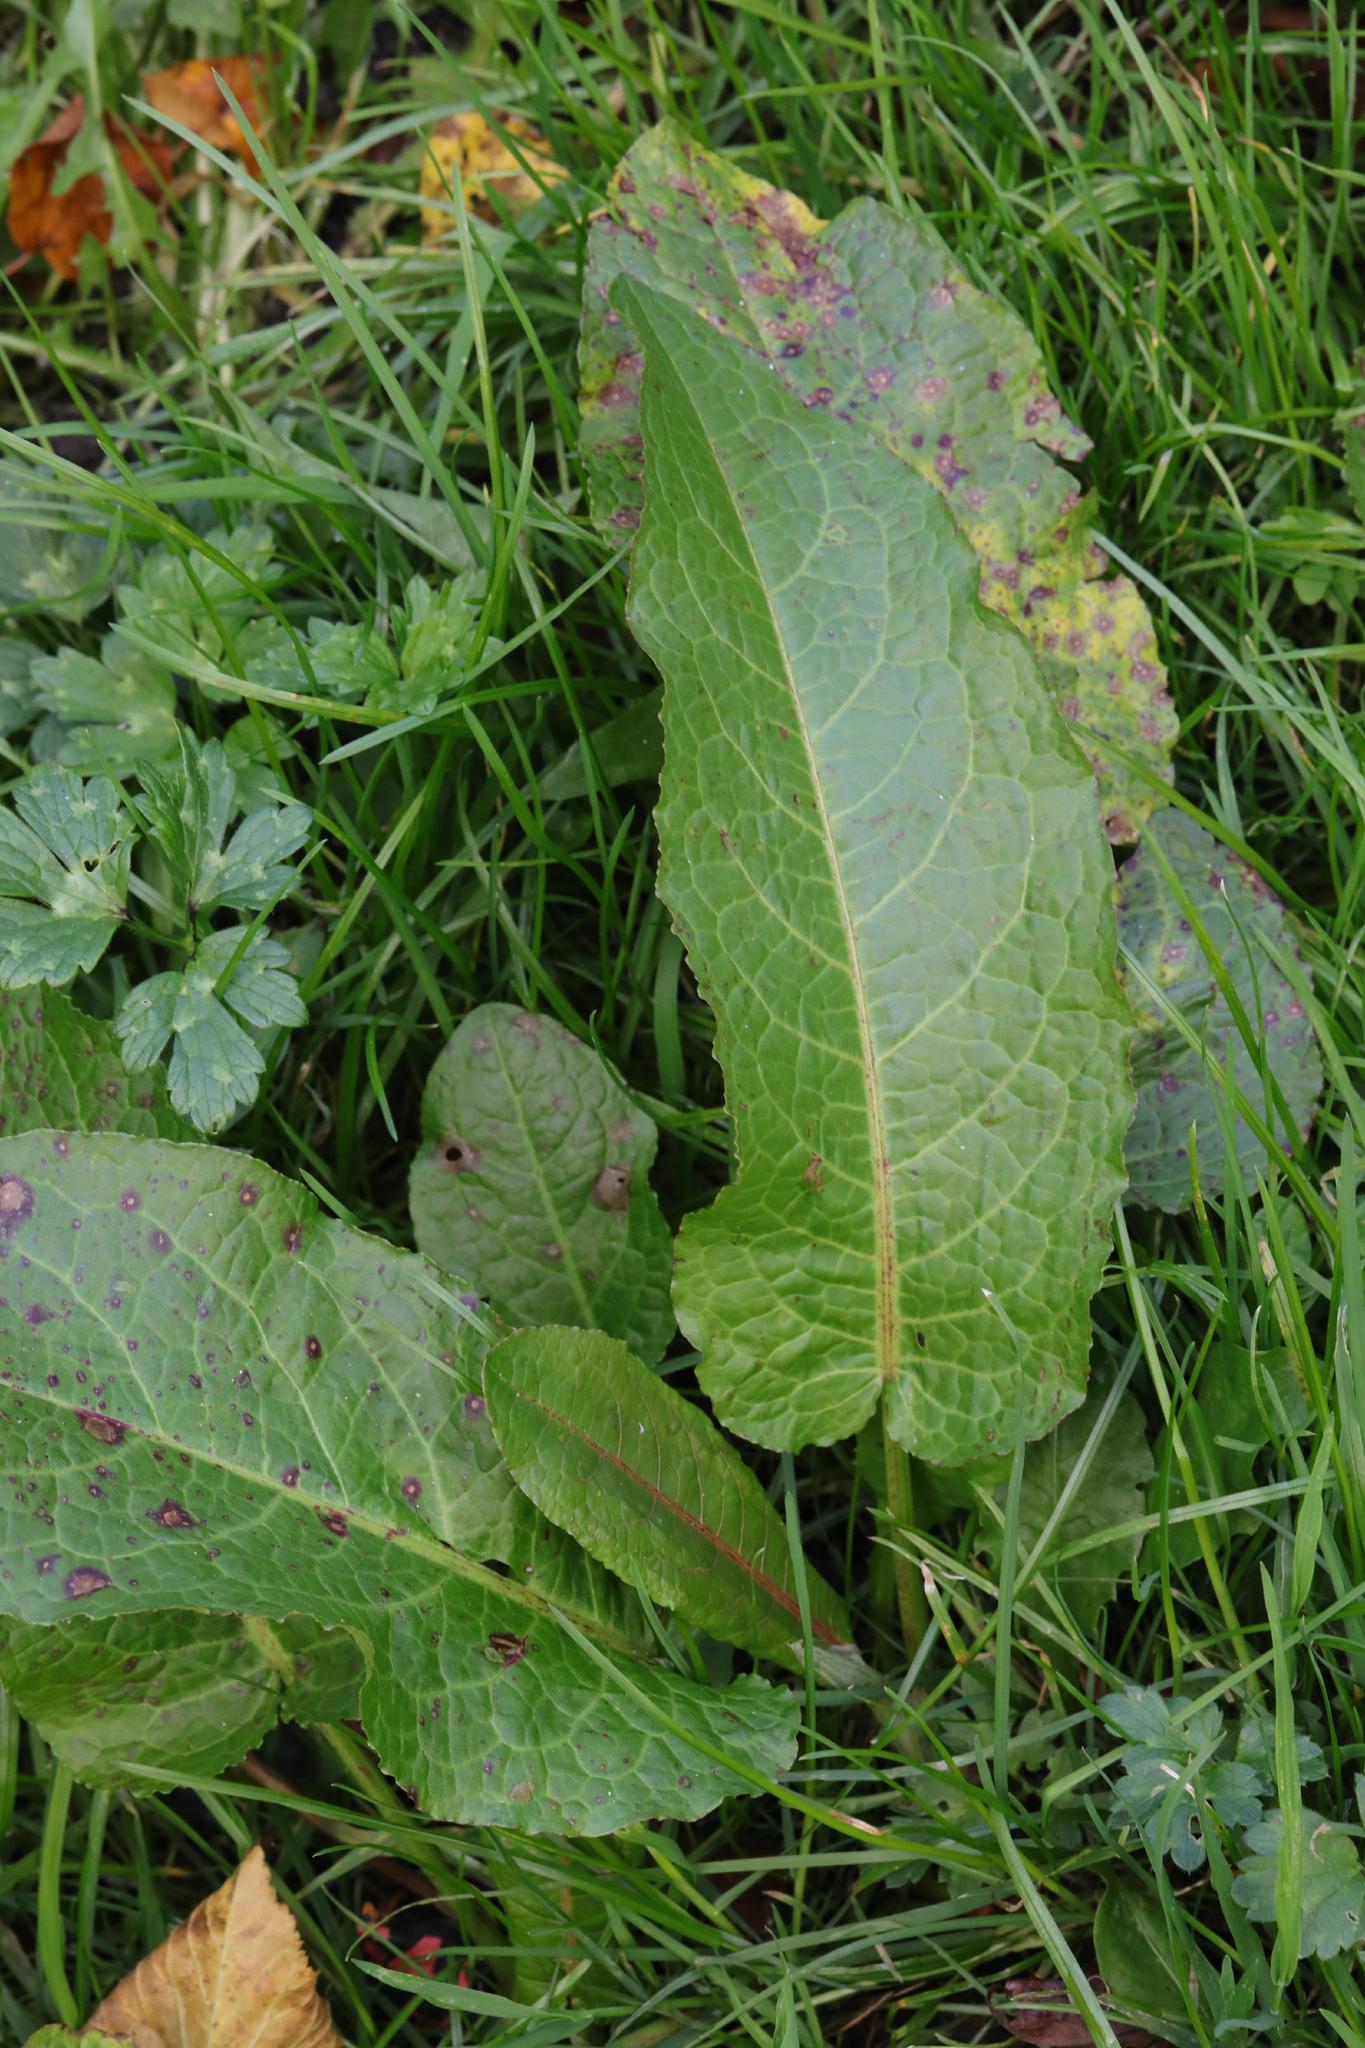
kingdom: Plantae
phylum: Tracheophyta
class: Magnoliopsida
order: Caryophyllales
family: Polygonaceae
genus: Rumex
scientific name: Rumex obtusifolius
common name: Bitter dock
